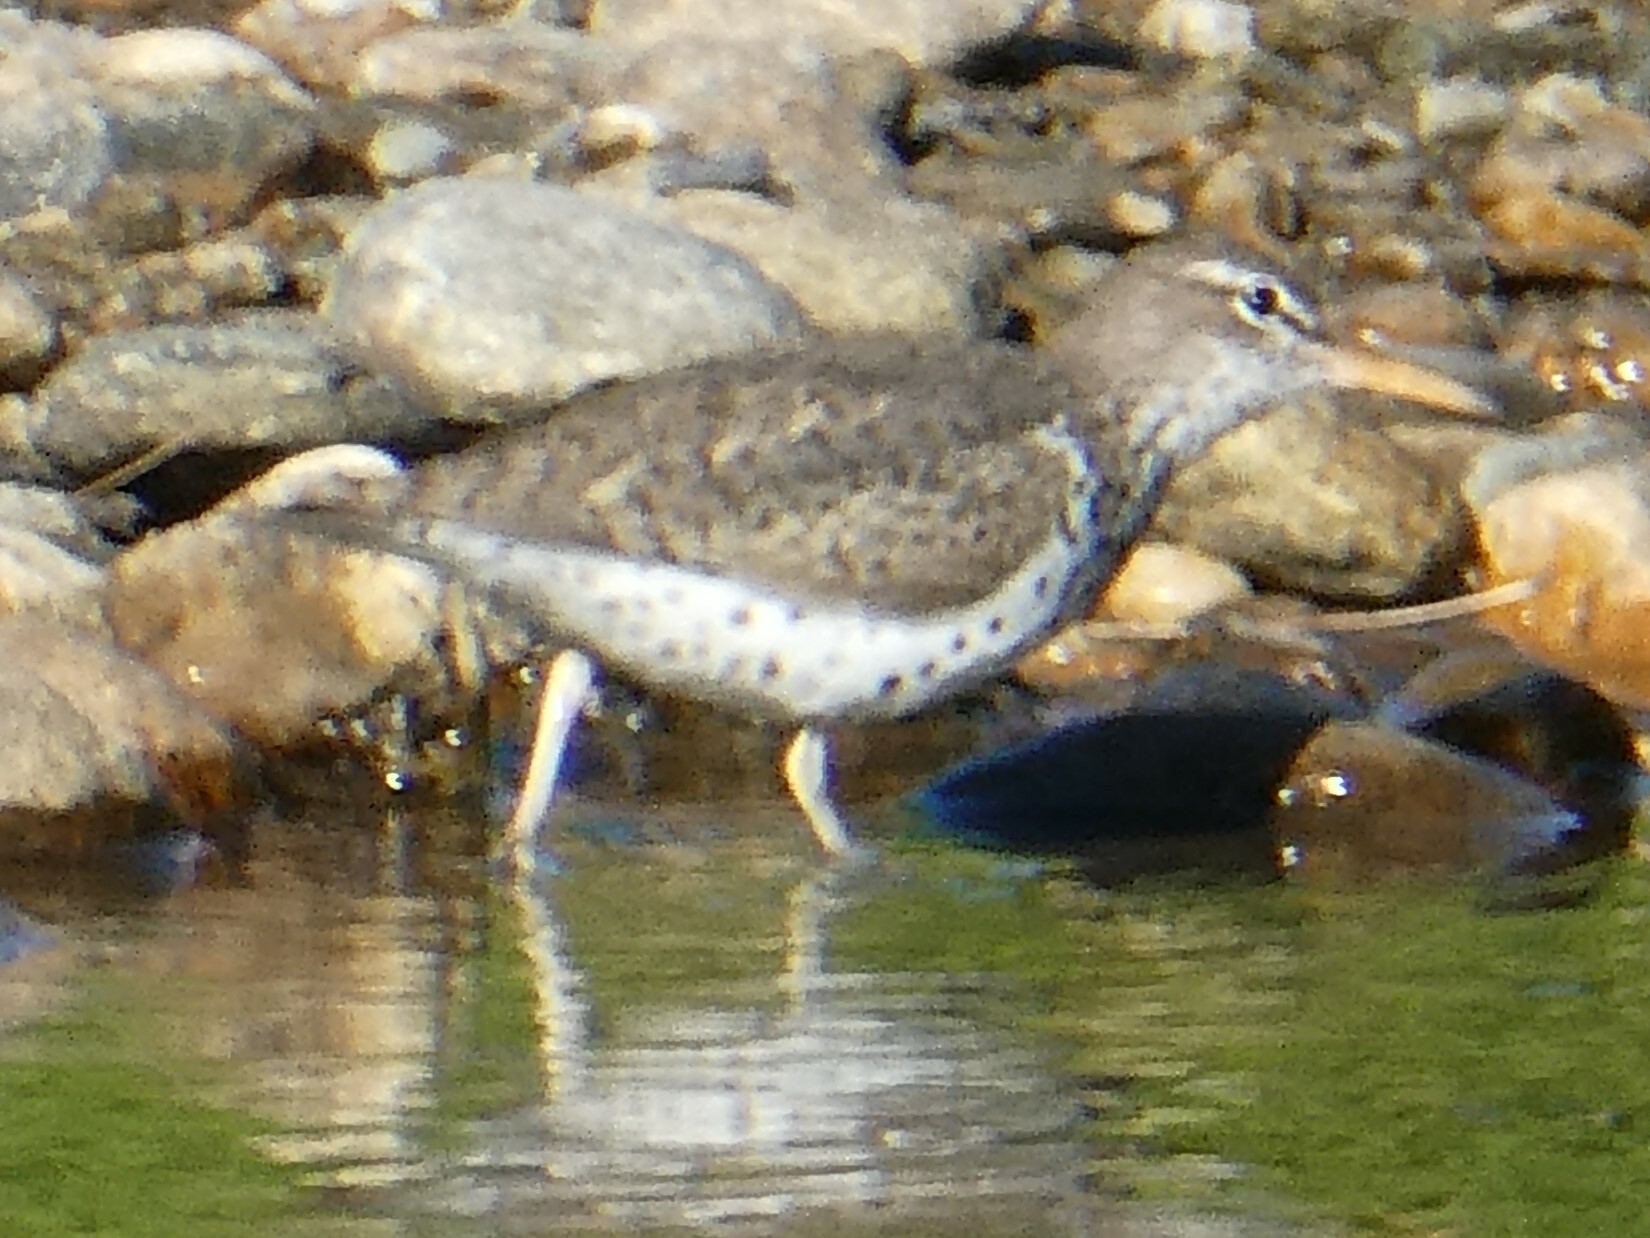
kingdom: Animalia
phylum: Chordata
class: Aves
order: Charadriiformes
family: Scolopacidae
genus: Actitis
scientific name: Actitis macularius
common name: Spotted sandpiper
